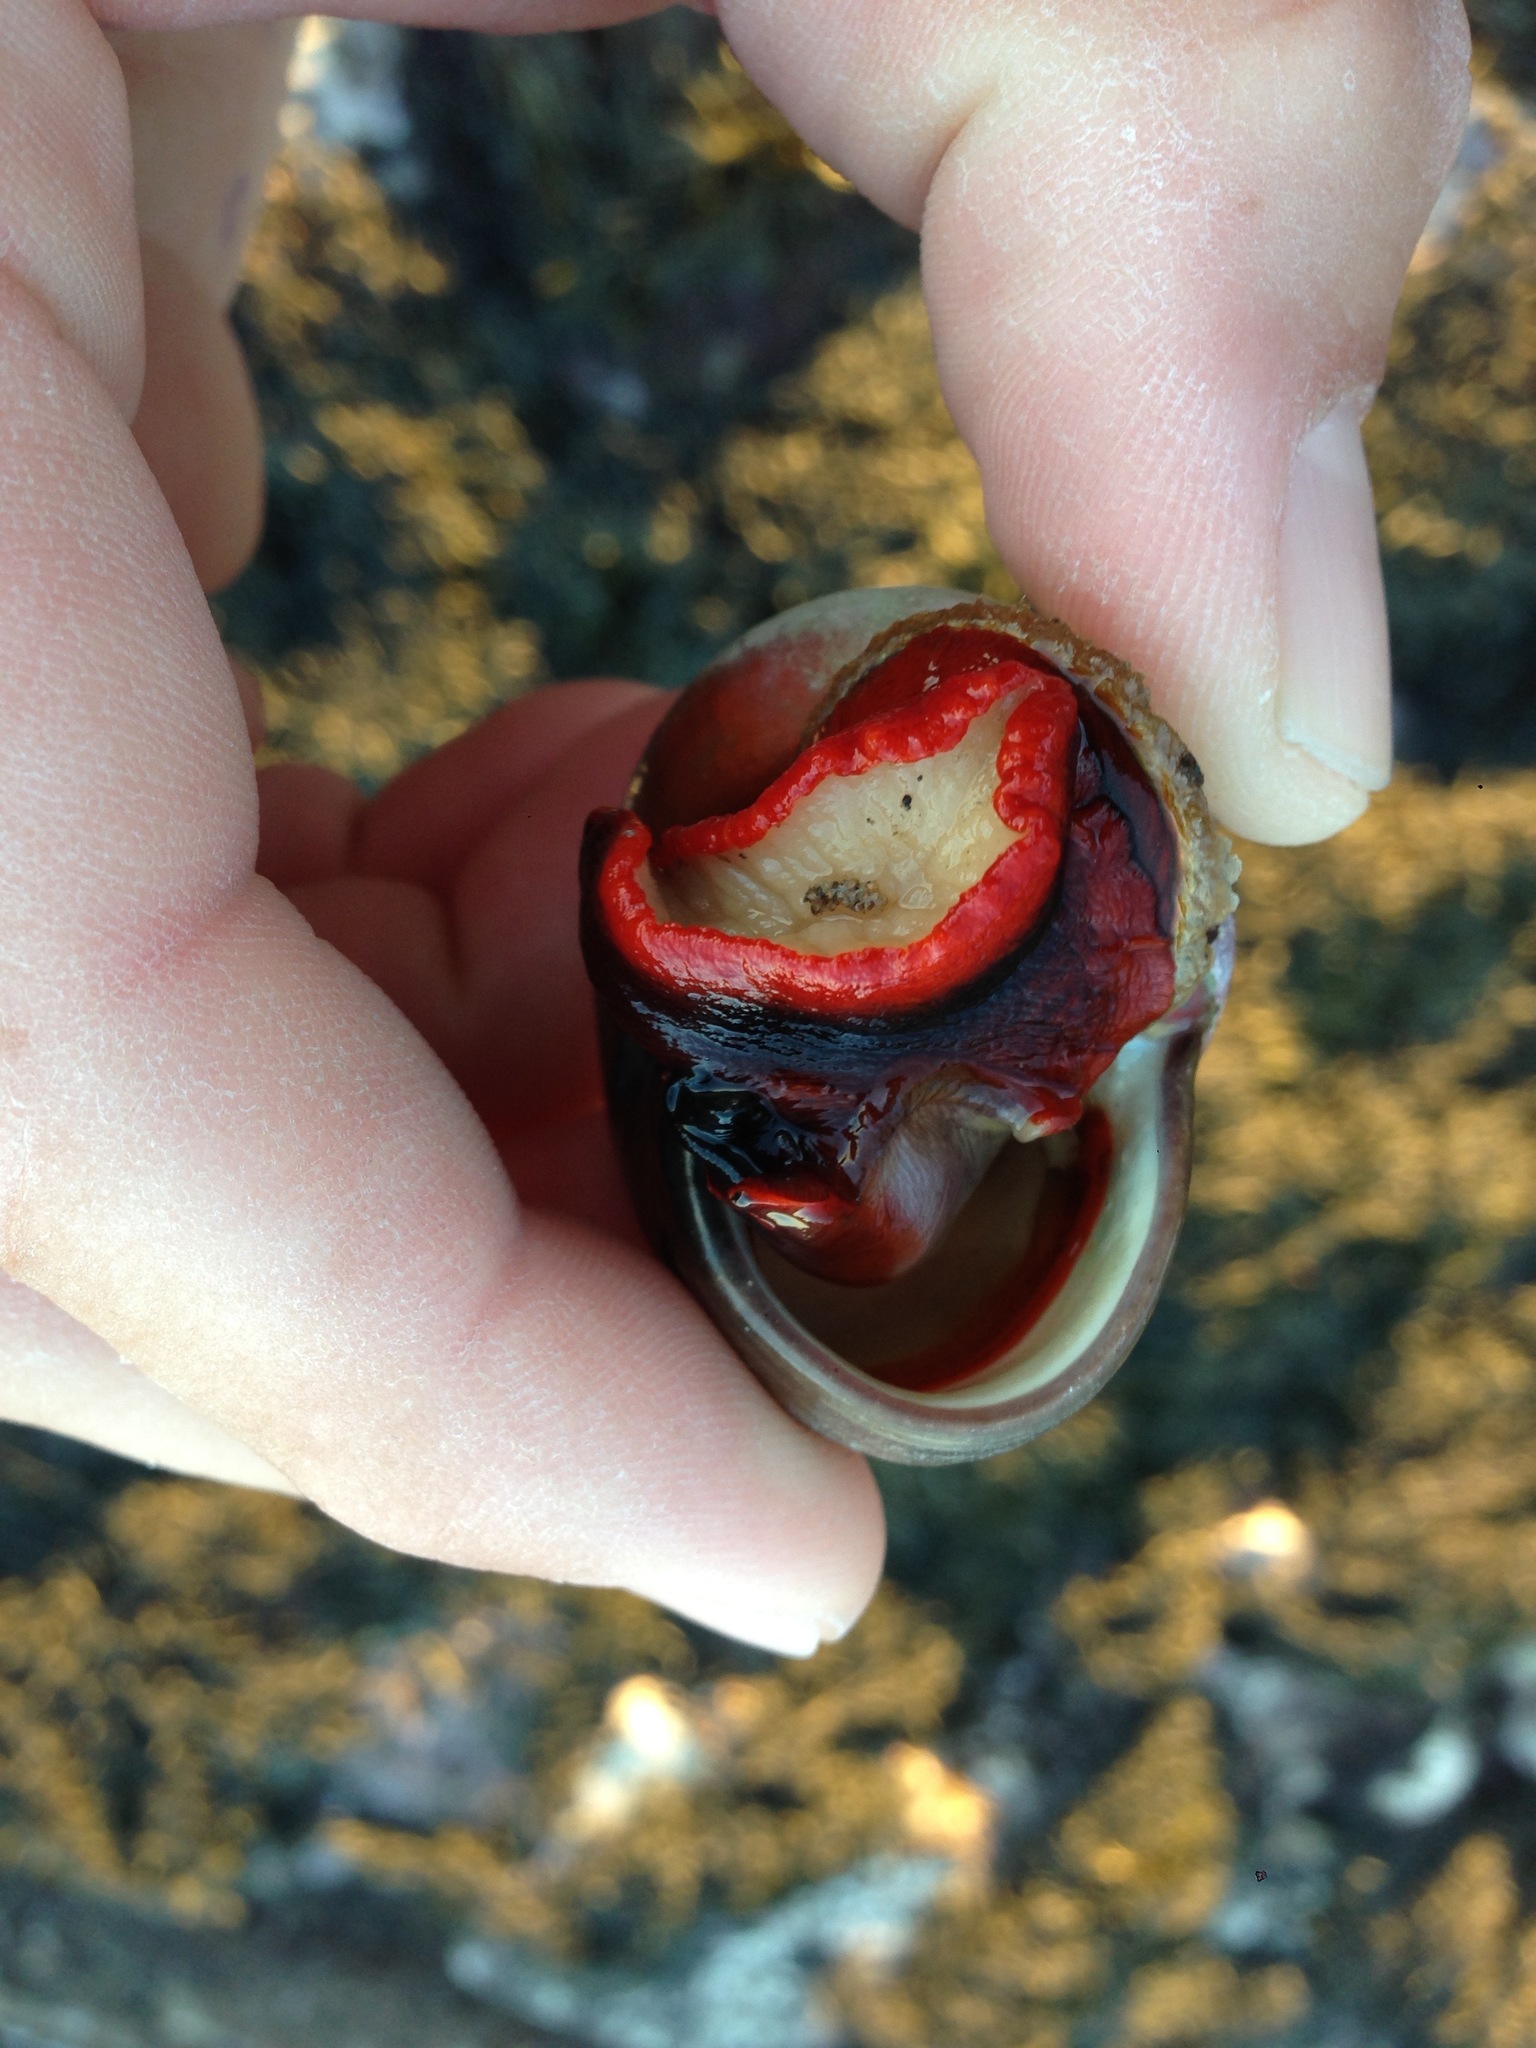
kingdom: Animalia
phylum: Mollusca
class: Gastropoda
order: Trochida
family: Tegulidae
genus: Norrisia
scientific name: Norrisia norrisii
